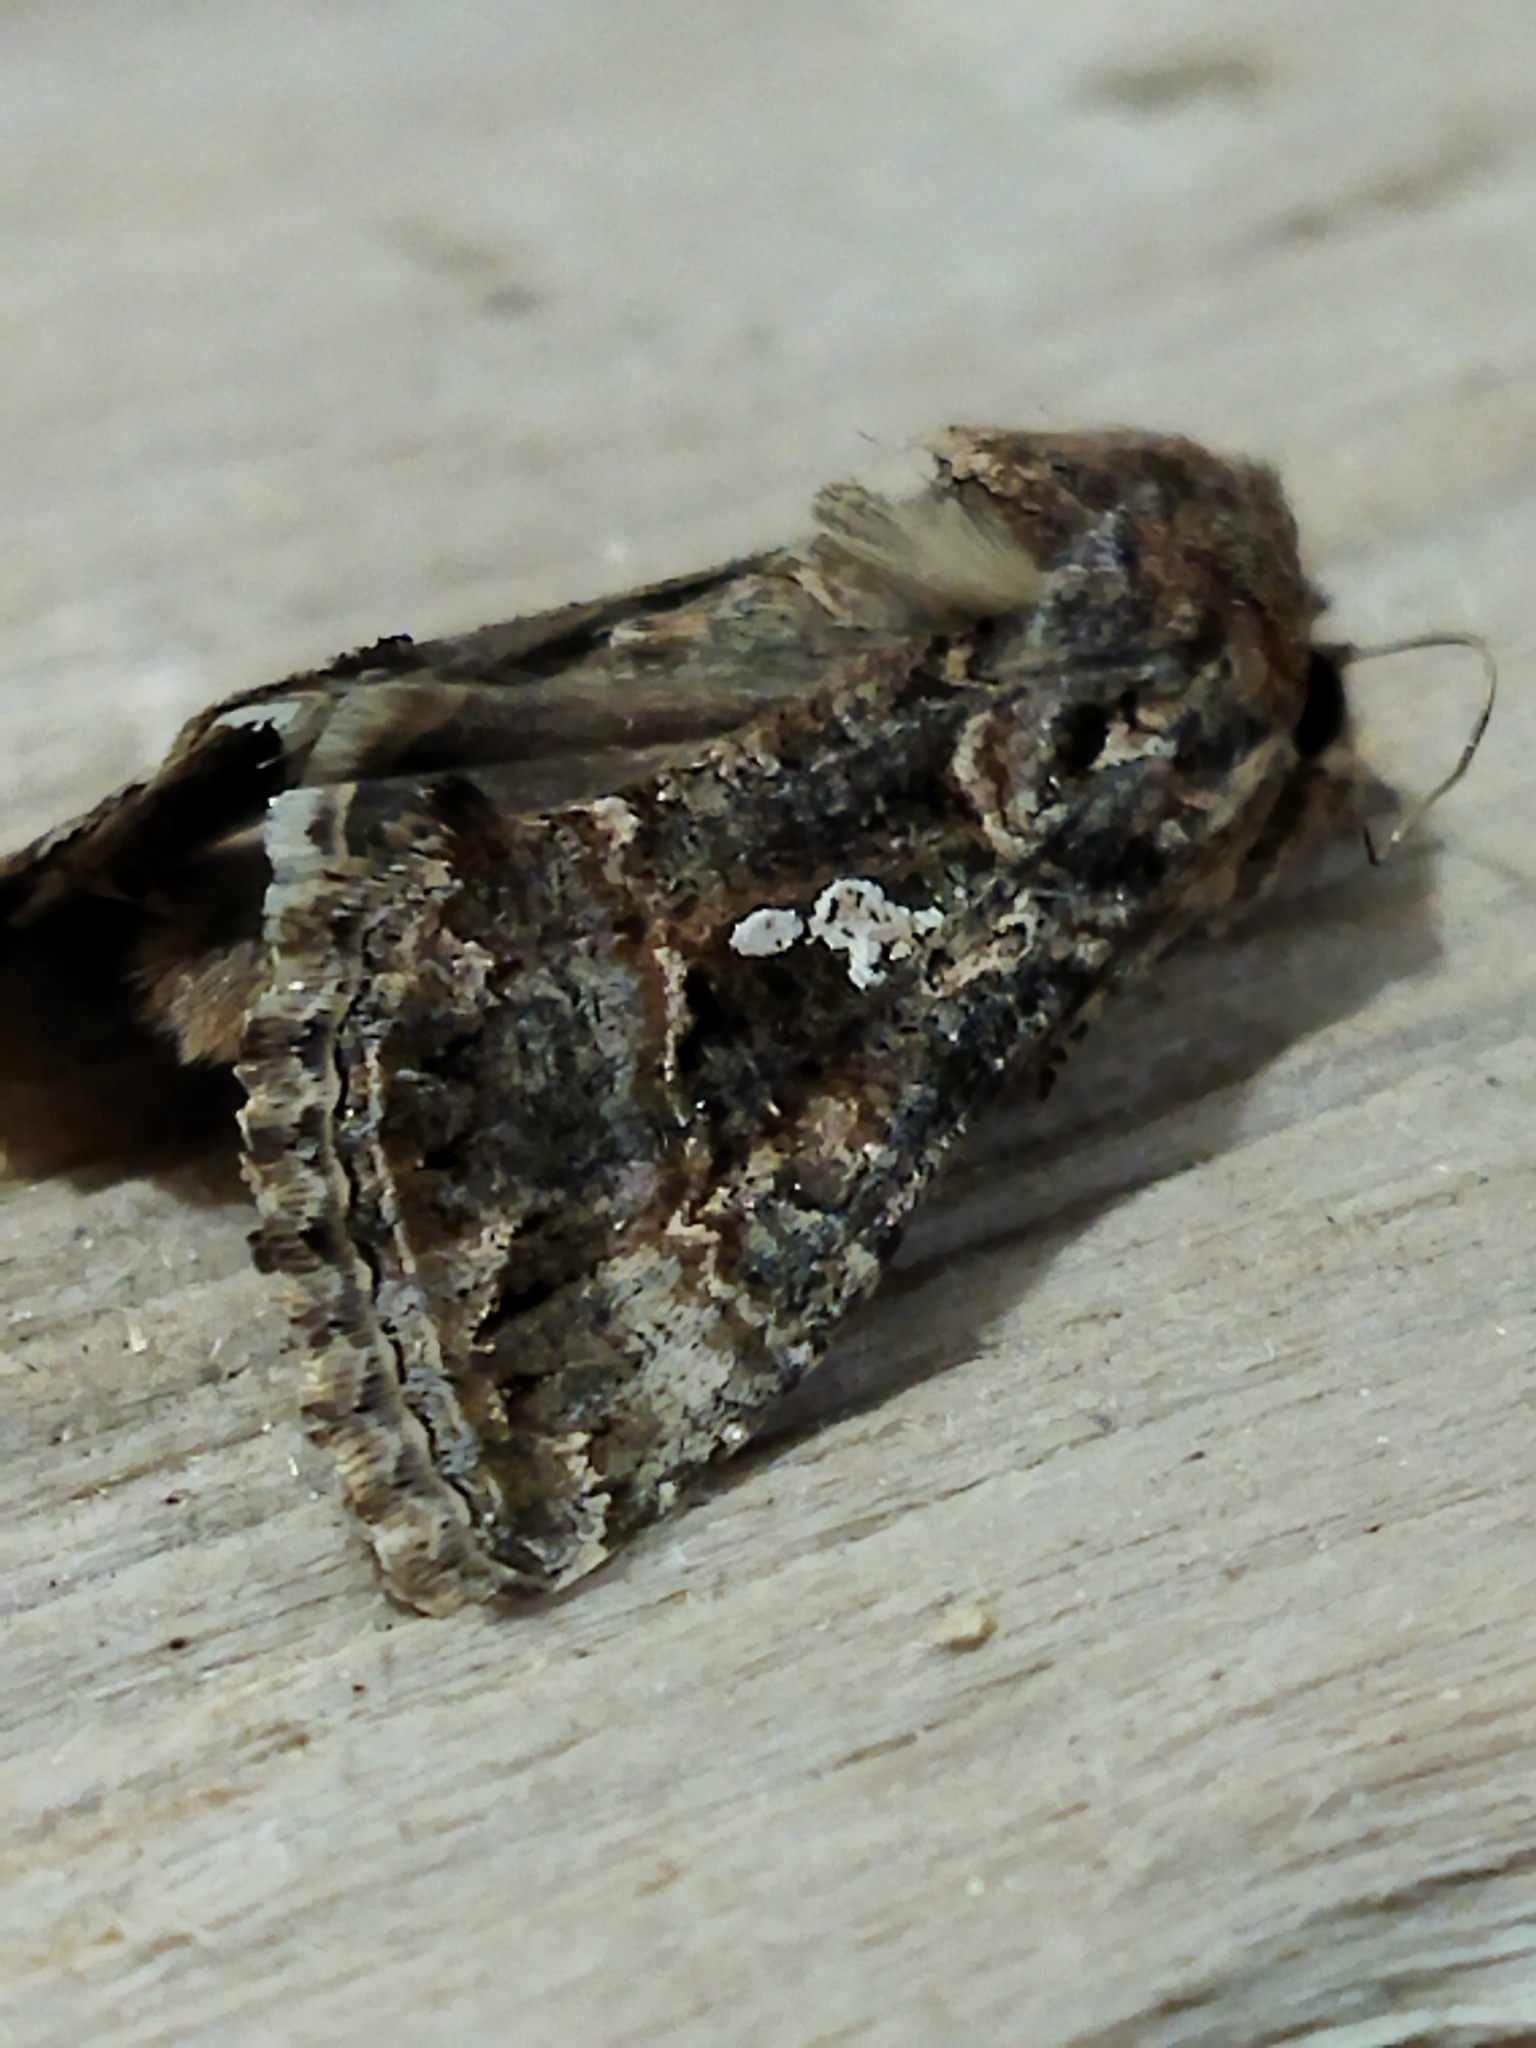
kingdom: Animalia
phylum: Arthropoda
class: Insecta
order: Lepidoptera
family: Noctuidae
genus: Trichoplusia
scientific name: Trichoplusia ni
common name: Ni moth
